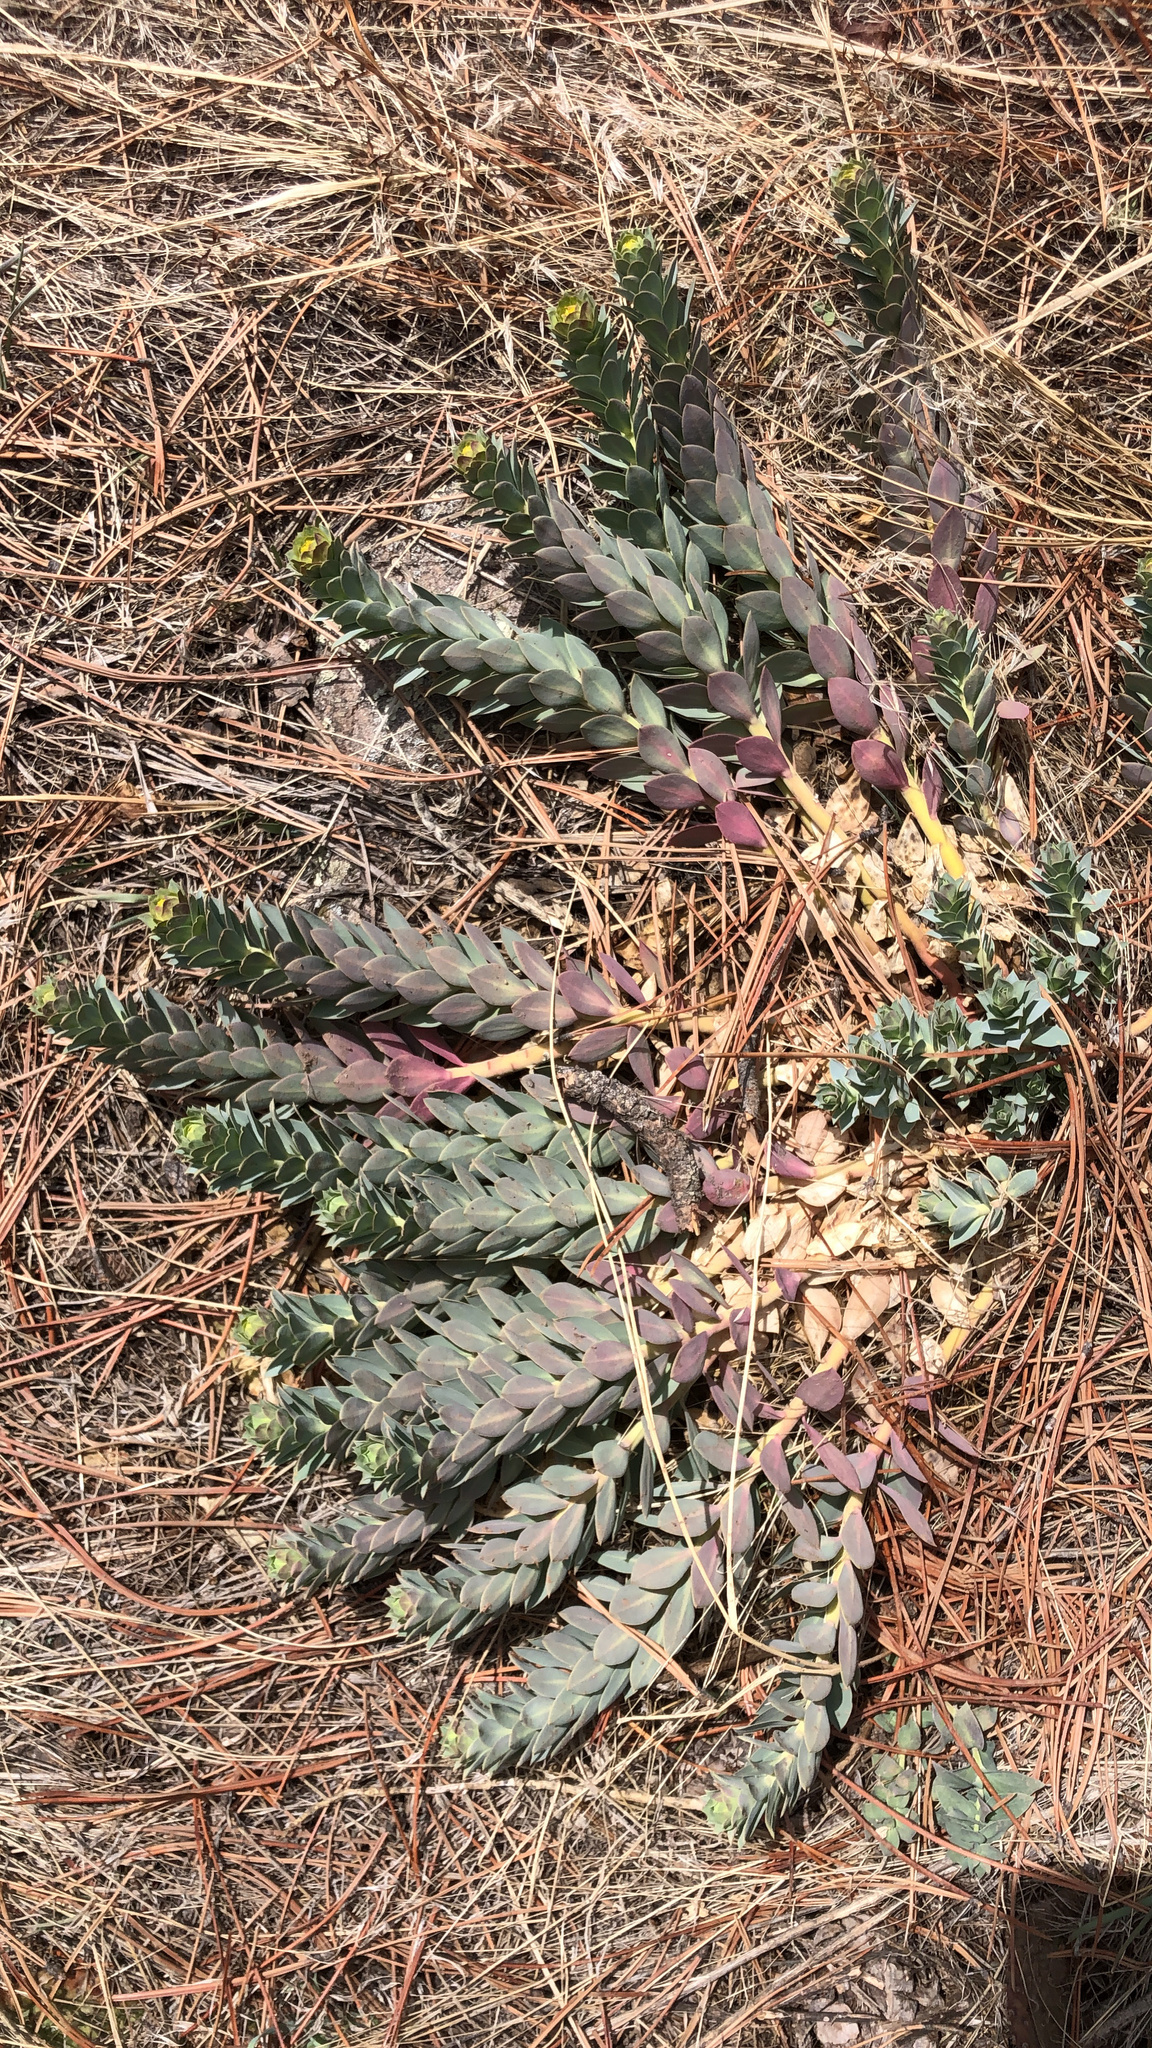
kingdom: Plantae
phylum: Tracheophyta
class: Magnoliopsida
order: Malpighiales
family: Euphorbiaceae
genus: Euphorbia
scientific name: Euphorbia myrsinites
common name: Myrtle spurge
